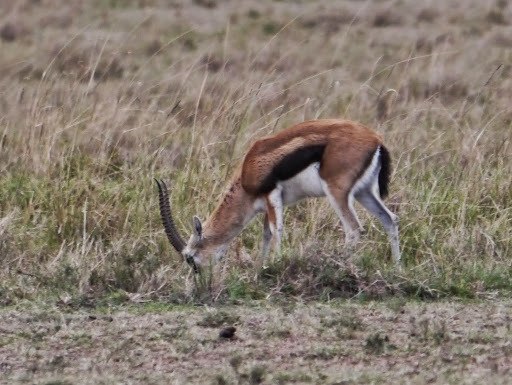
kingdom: Animalia
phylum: Chordata
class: Mammalia
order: Artiodactyla
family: Bovidae
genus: Eudorcas
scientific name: Eudorcas thomsonii
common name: Thomson's gazelle
